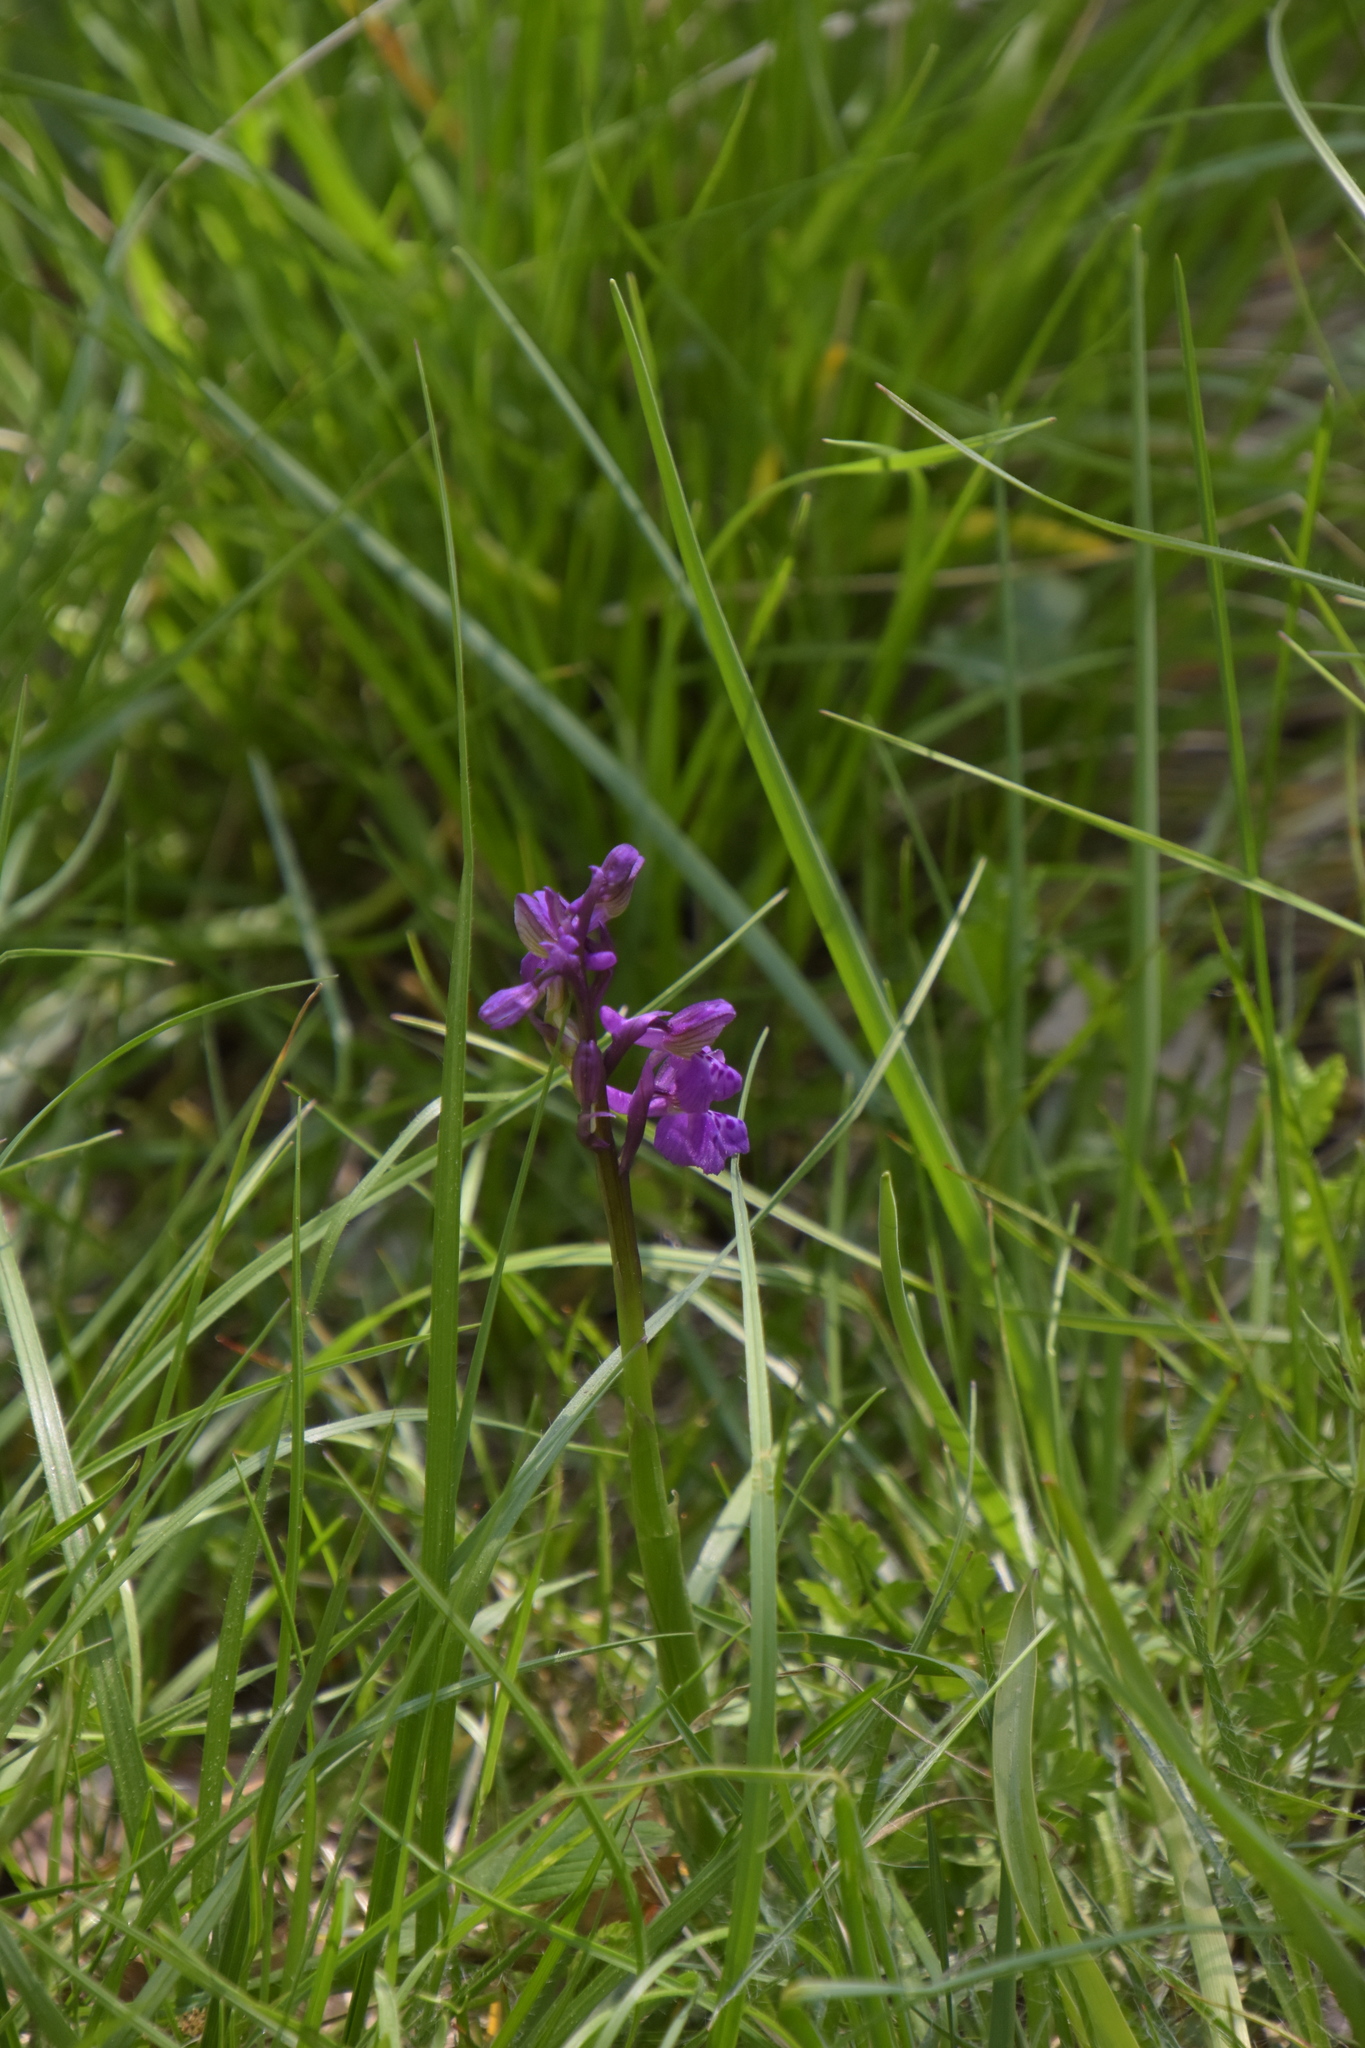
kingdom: Plantae
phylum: Tracheophyta
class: Liliopsida
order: Asparagales
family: Orchidaceae
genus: Anacamptis
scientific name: Anacamptis morio
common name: Green-winged orchid
